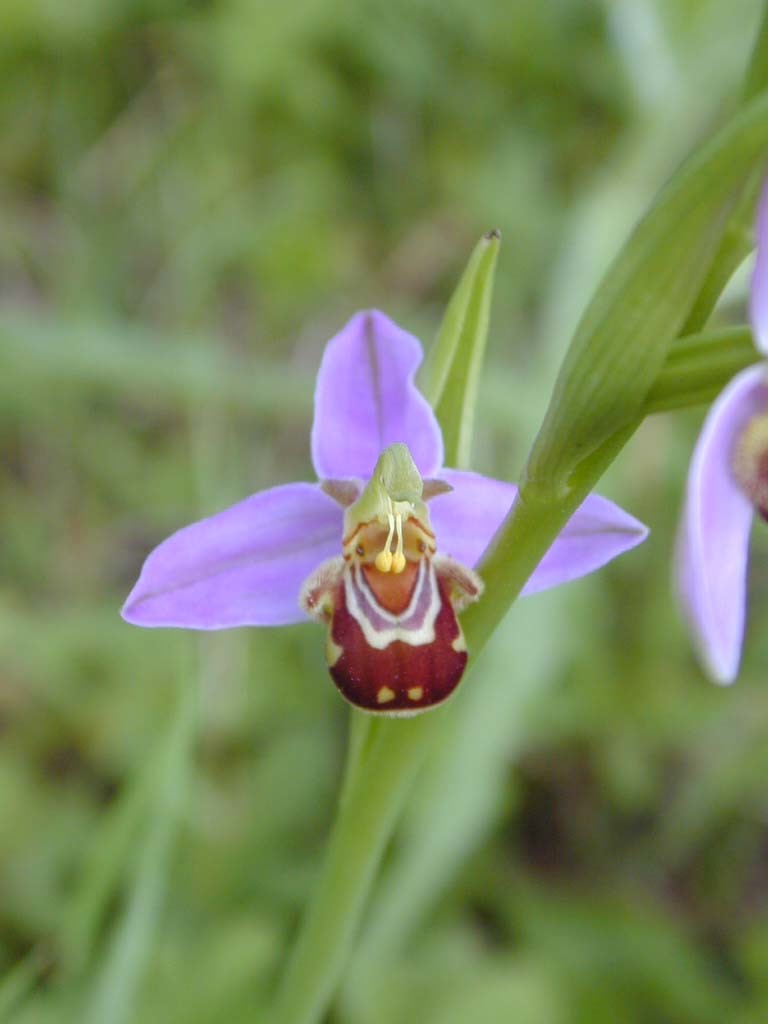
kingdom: Plantae
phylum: Tracheophyta
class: Liliopsida
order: Asparagales
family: Orchidaceae
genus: Ophrys
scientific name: Ophrys apifera
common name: Bee orchid
